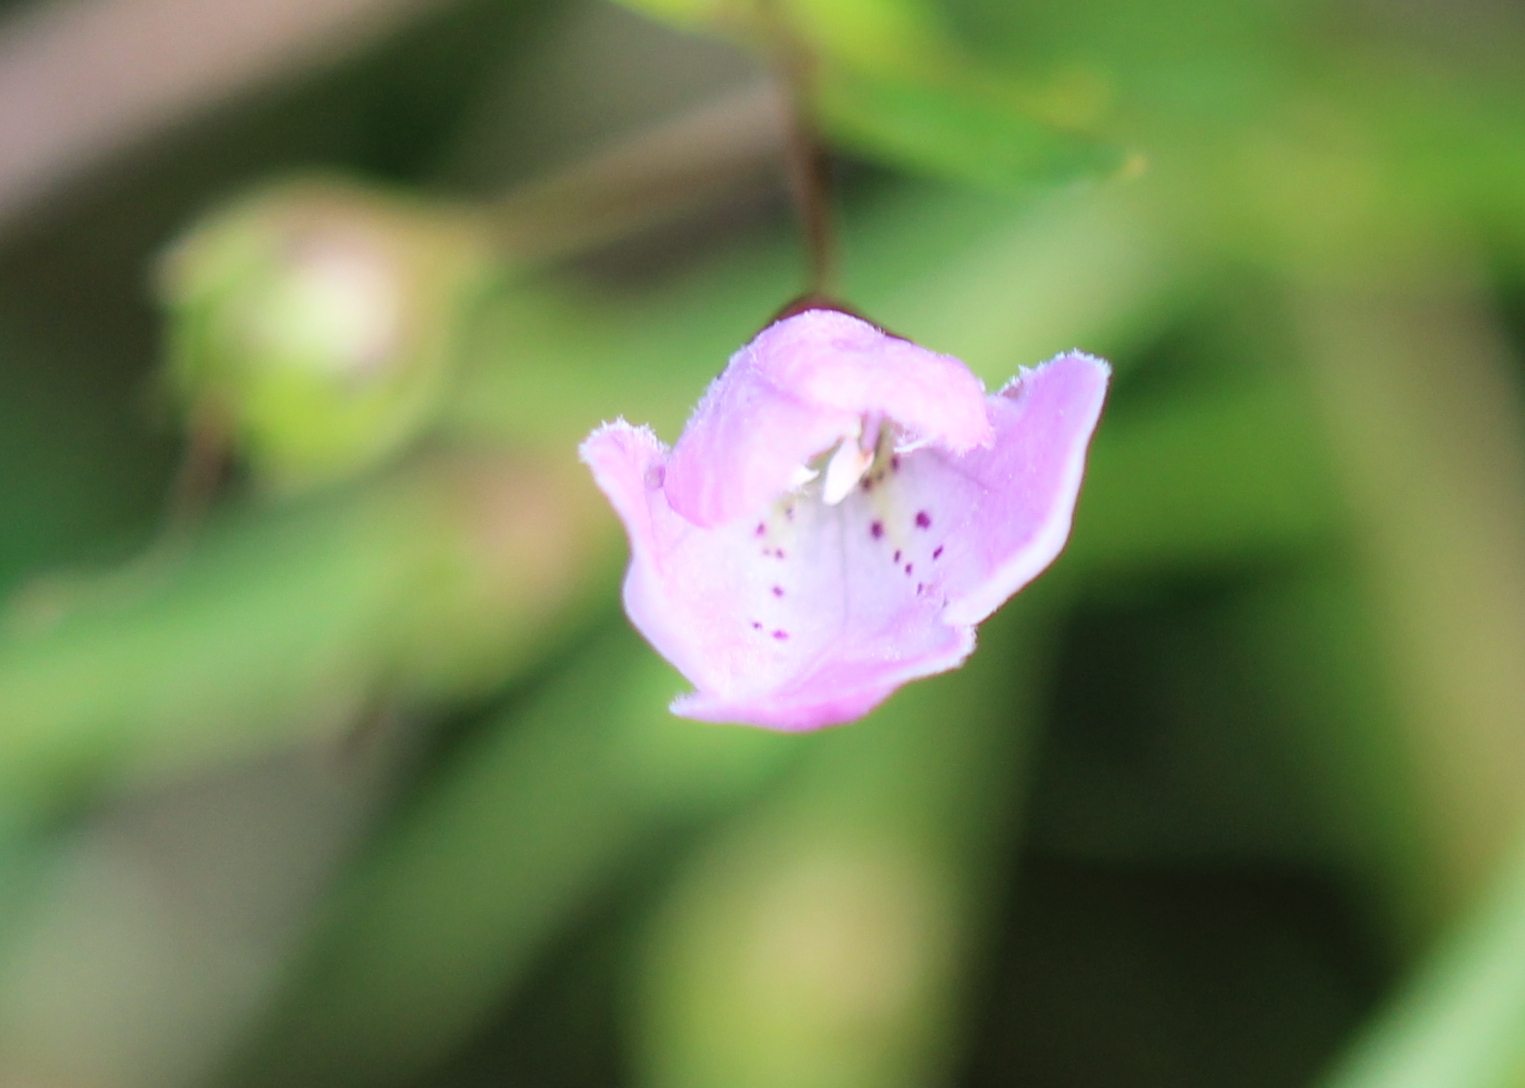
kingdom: Plantae
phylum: Tracheophyta
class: Magnoliopsida
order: Lamiales
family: Orobanchaceae
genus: Agalinis
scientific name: Agalinis tenuifolia
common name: Slender agalinis
